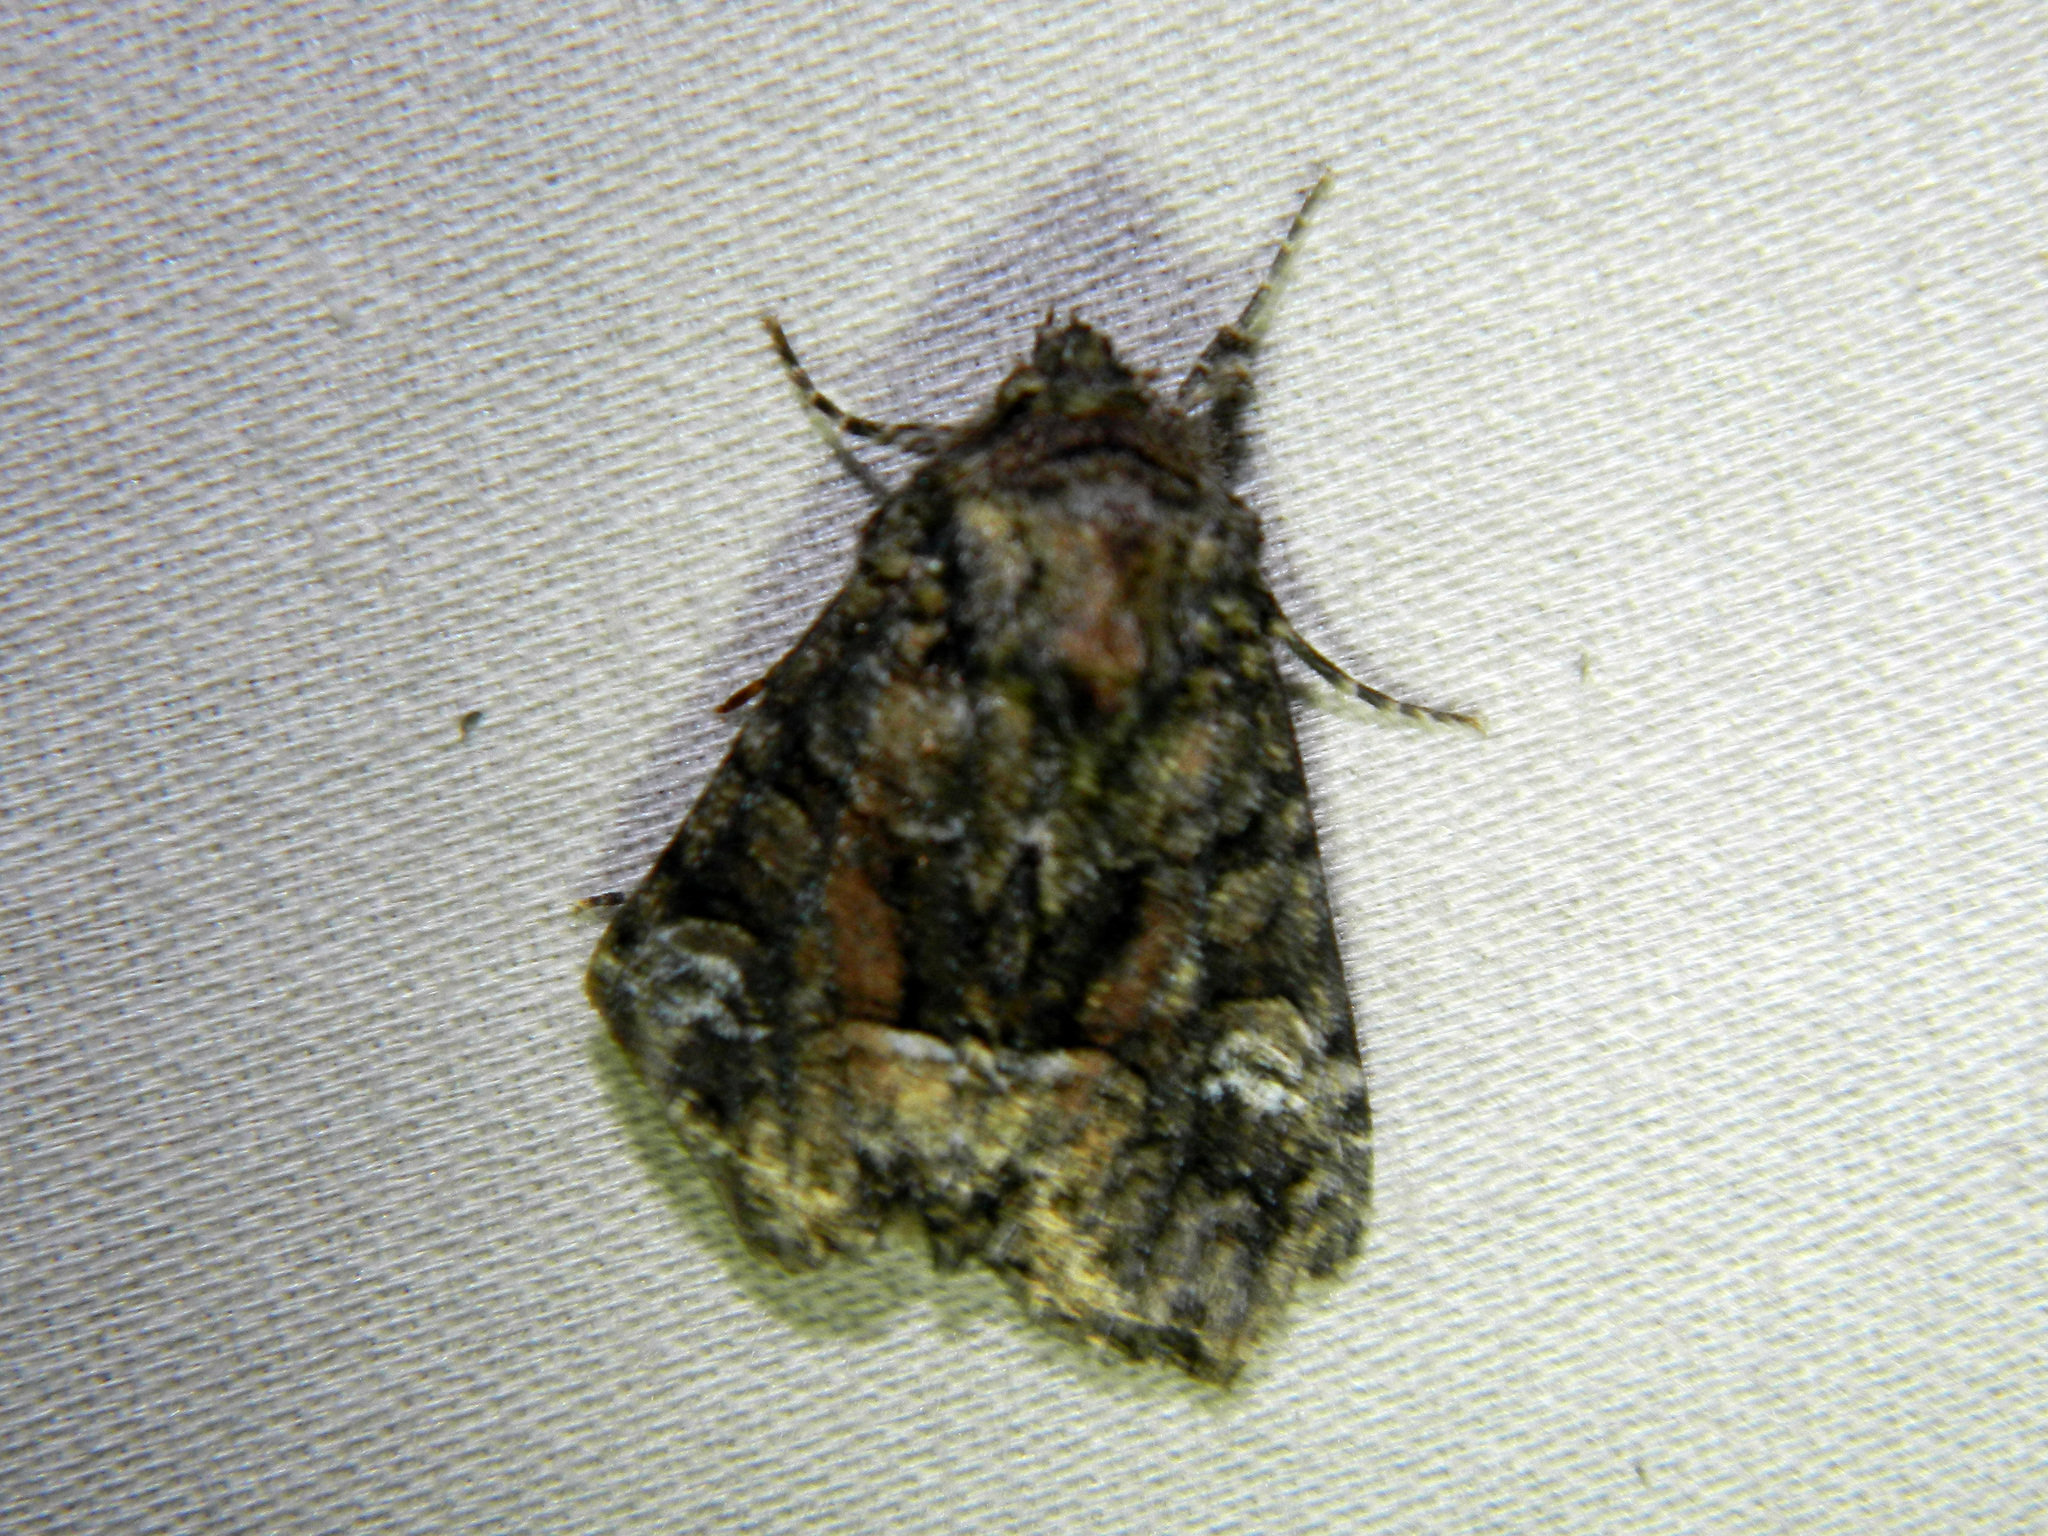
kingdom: Animalia
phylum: Arthropoda
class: Insecta
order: Lepidoptera
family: Noctuidae
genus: Fishia
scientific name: Fishia illocata
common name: Wandering brocade moth
